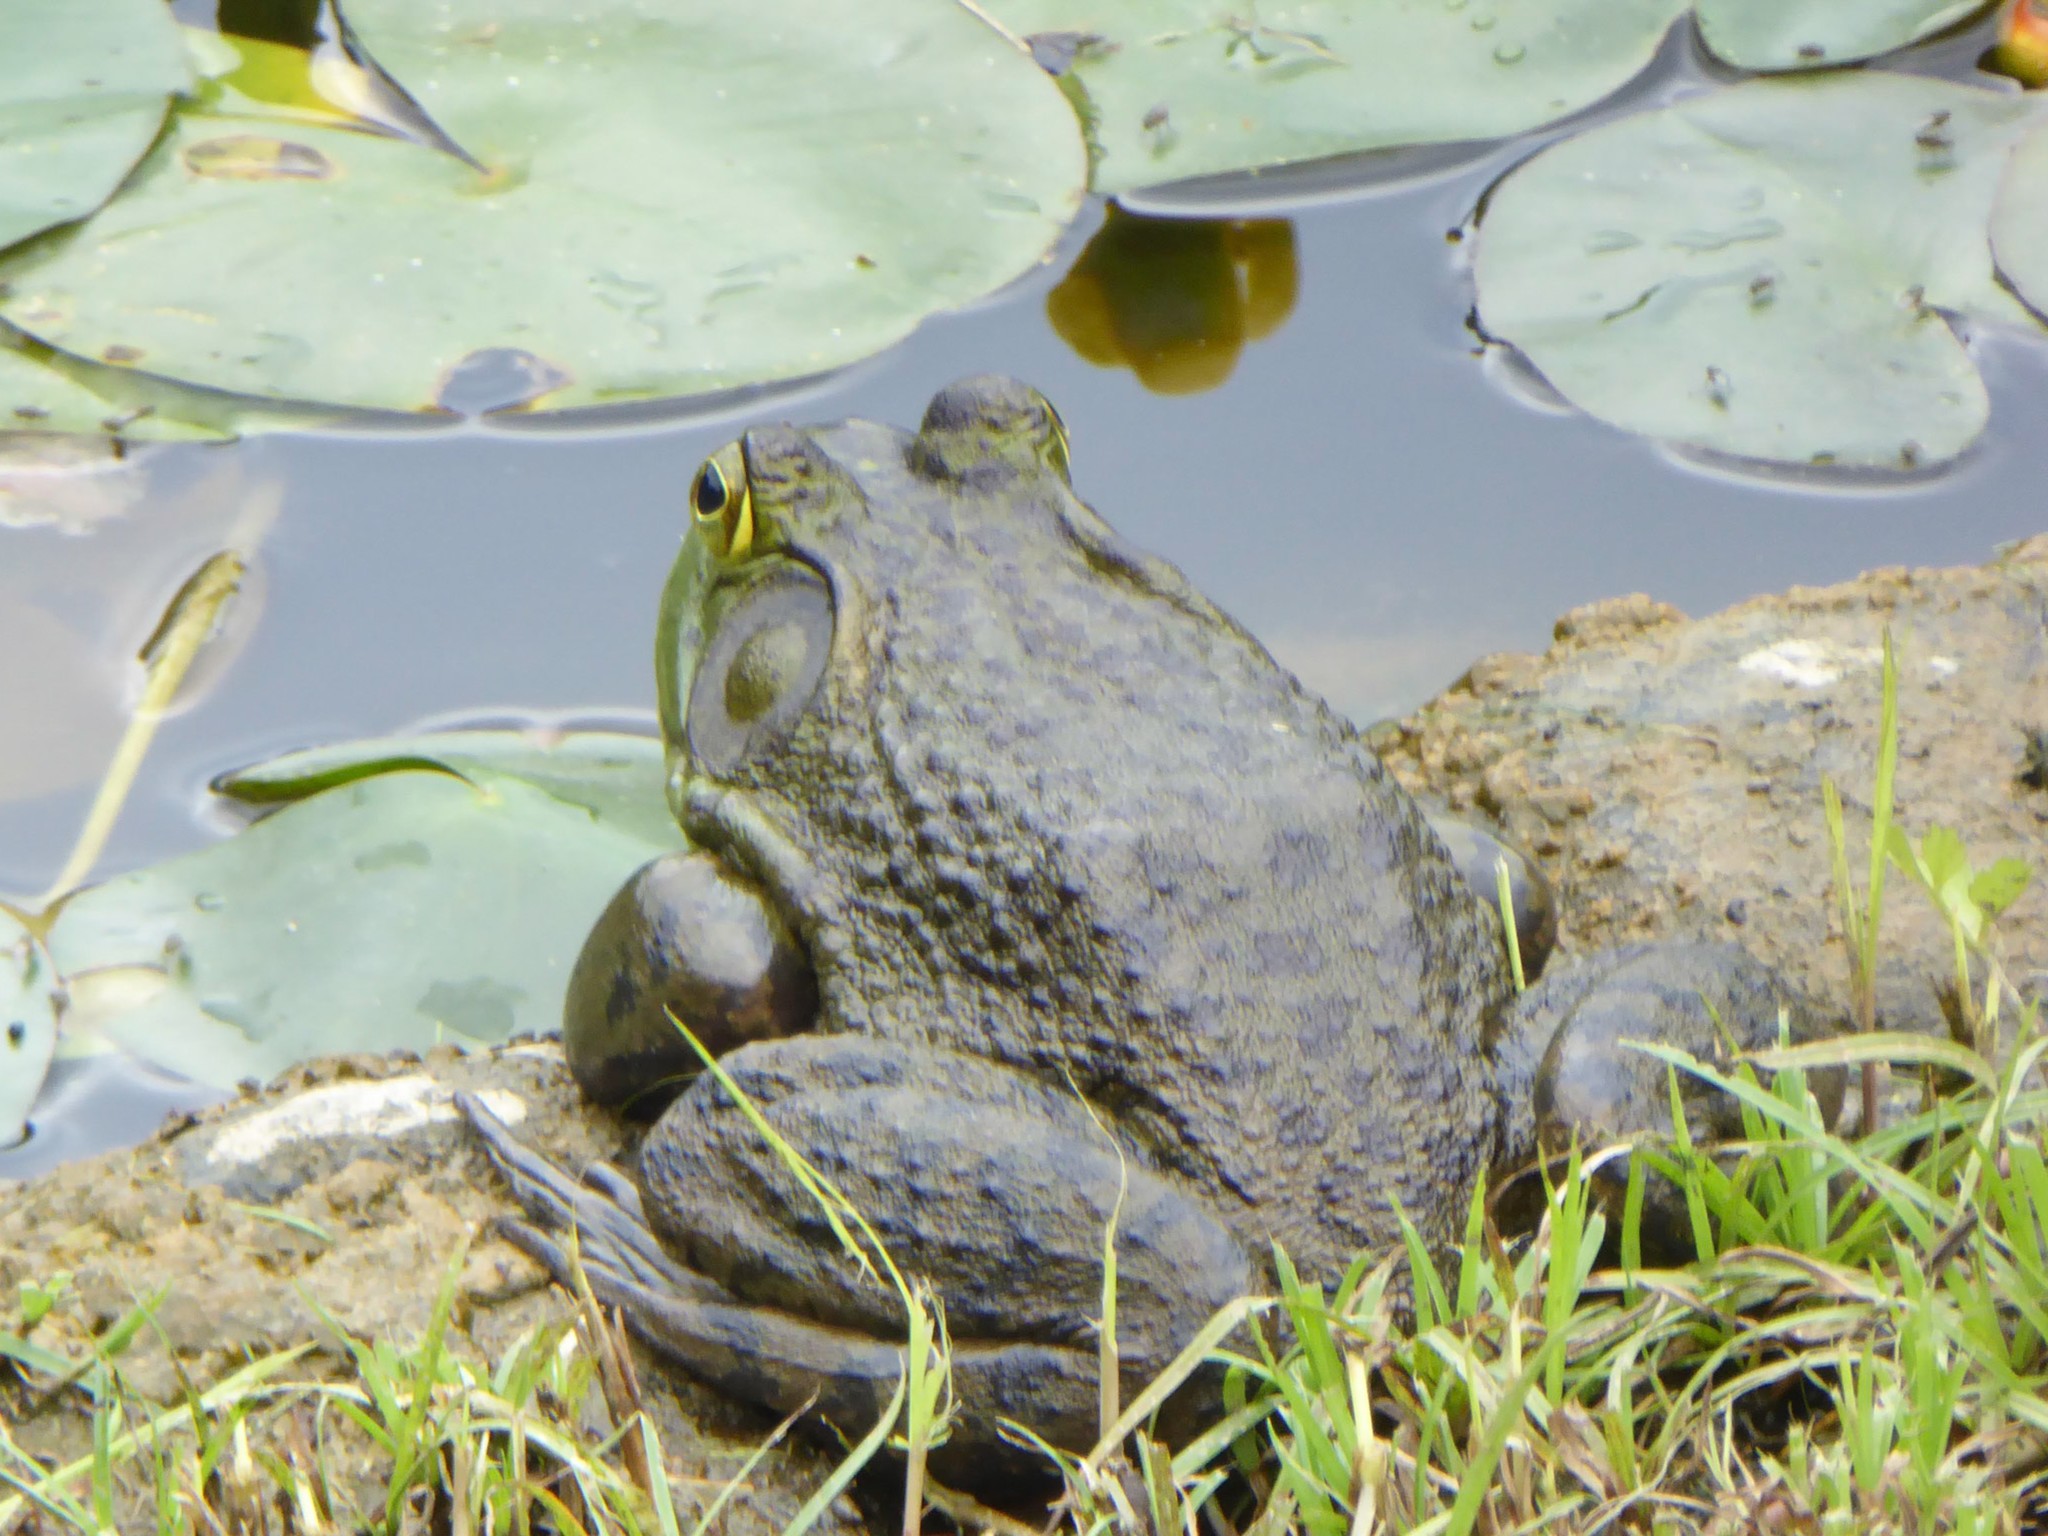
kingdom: Animalia
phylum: Chordata
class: Amphibia
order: Anura
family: Ranidae
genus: Lithobates
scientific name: Lithobates catesbeianus
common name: American bullfrog
